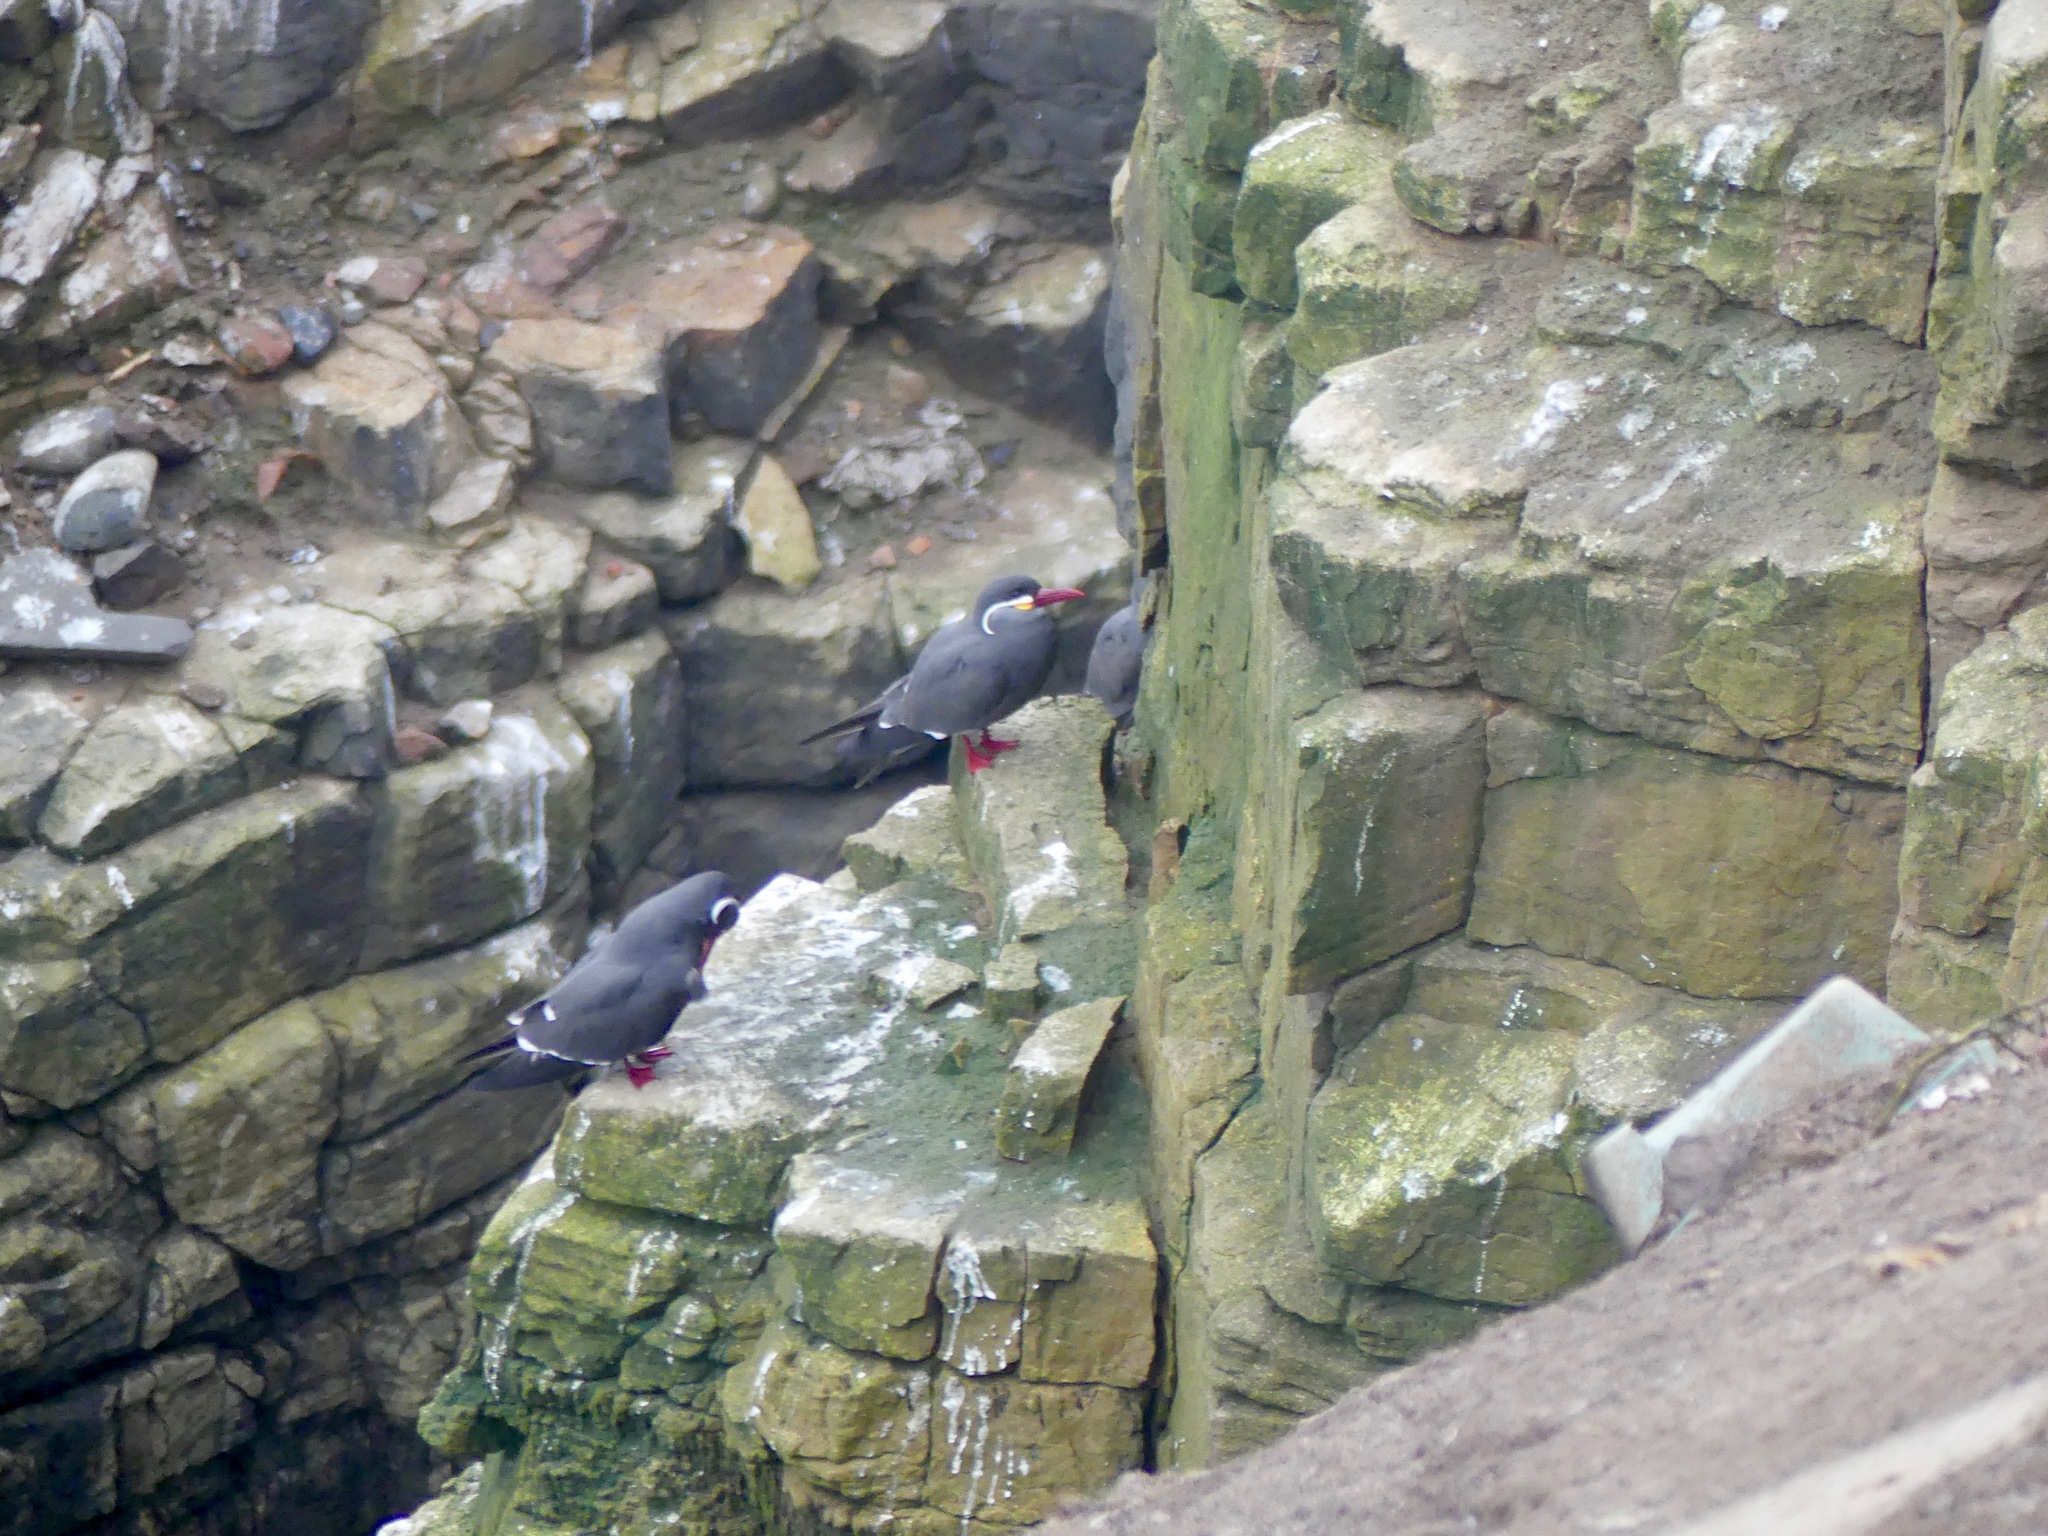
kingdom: Animalia
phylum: Chordata
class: Aves
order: Charadriiformes
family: Laridae
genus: Larosterna
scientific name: Larosterna inca
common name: Inca tern
